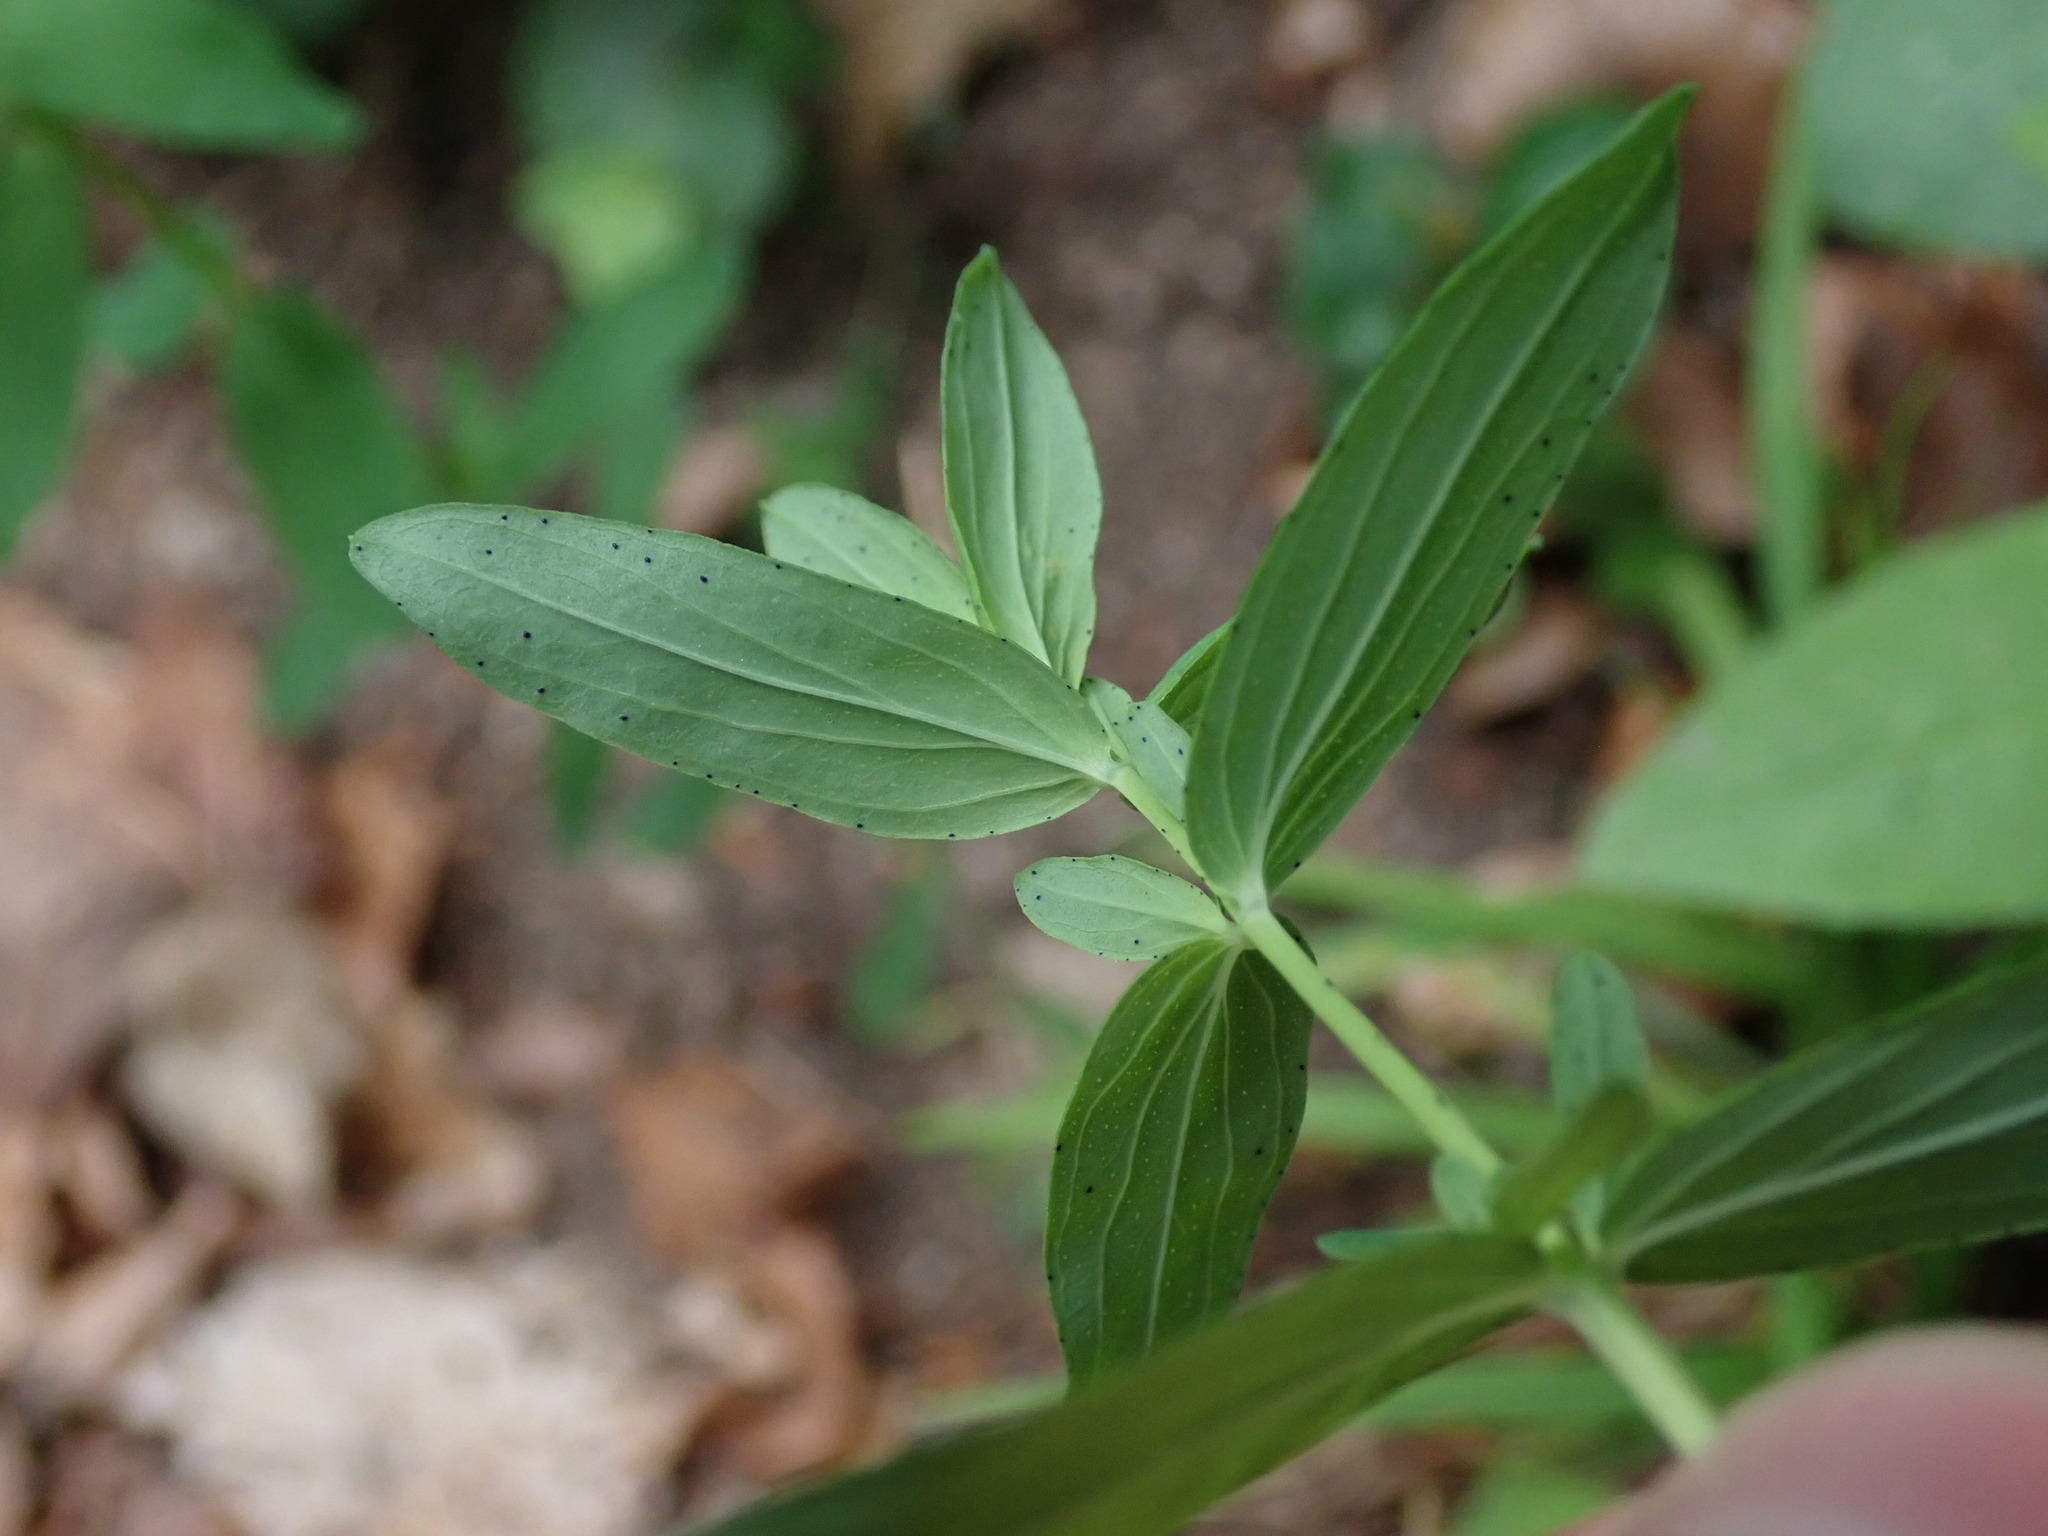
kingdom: Plantae
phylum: Tracheophyta
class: Magnoliopsida
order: Malpighiales
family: Hypericaceae
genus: Hypericum
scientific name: Hypericum perforatum
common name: Common st. johnswort
